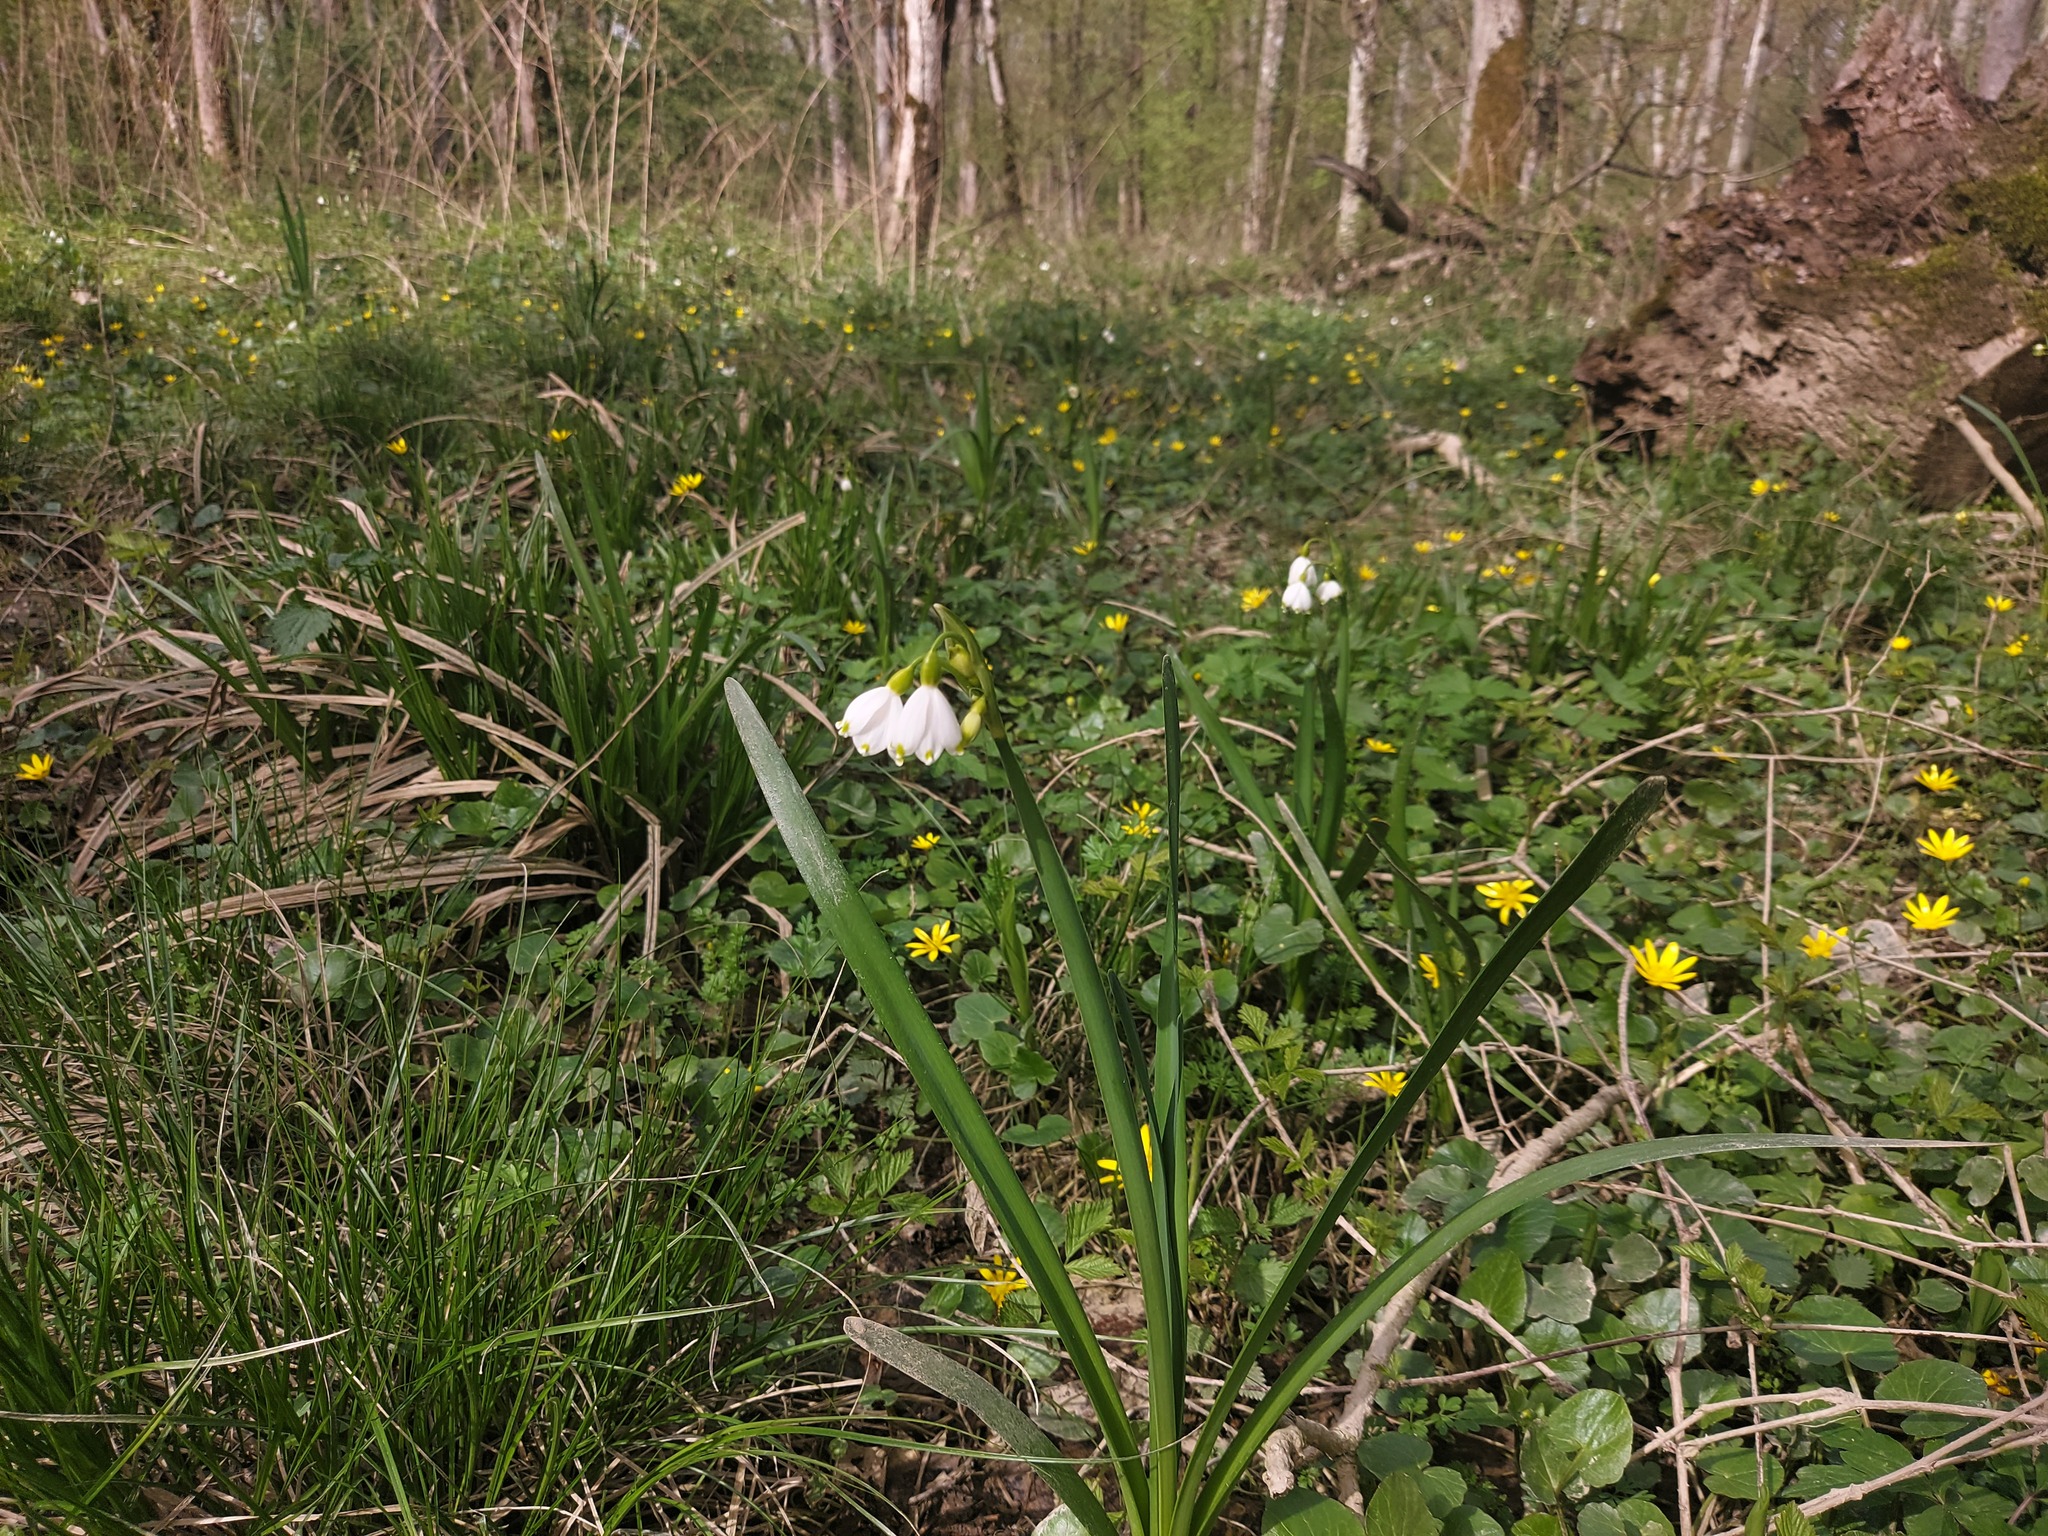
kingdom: Plantae
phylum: Tracheophyta
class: Liliopsida
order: Asparagales
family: Amaryllidaceae
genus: Leucojum
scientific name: Leucojum aestivum
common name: Summer snowflake
